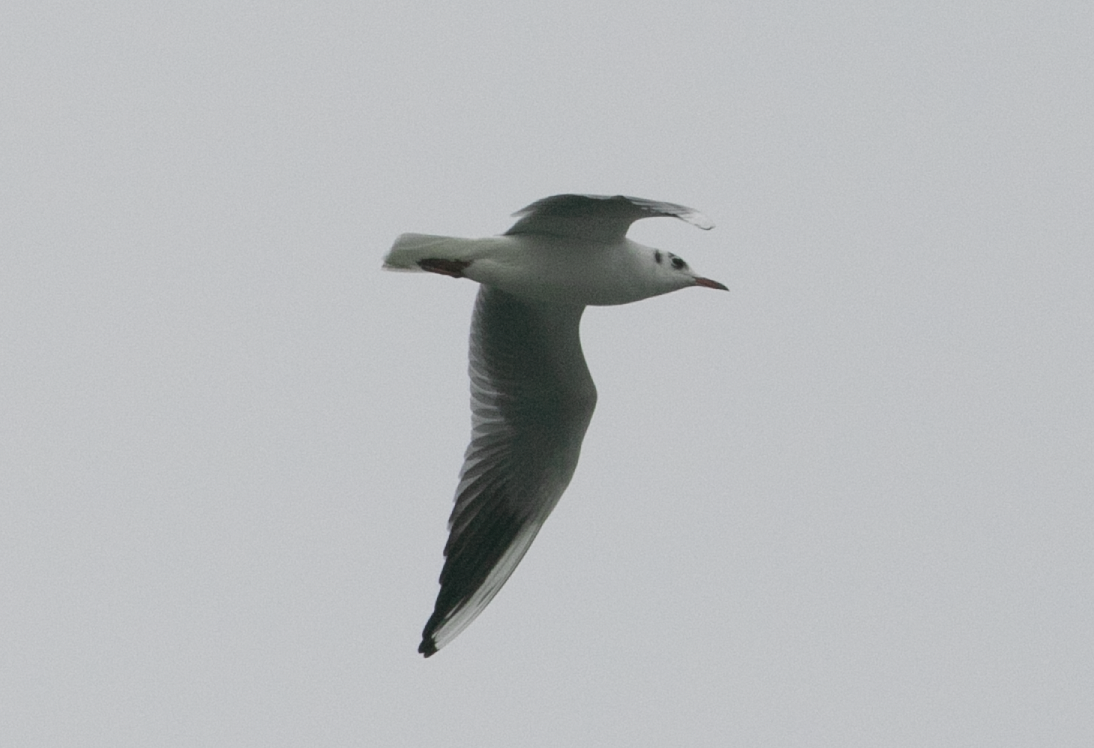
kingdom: Animalia
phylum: Chordata
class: Aves
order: Charadriiformes
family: Laridae
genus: Chroicocephalus
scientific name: Chroicocephalus ridibundus
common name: Black-headed gull
